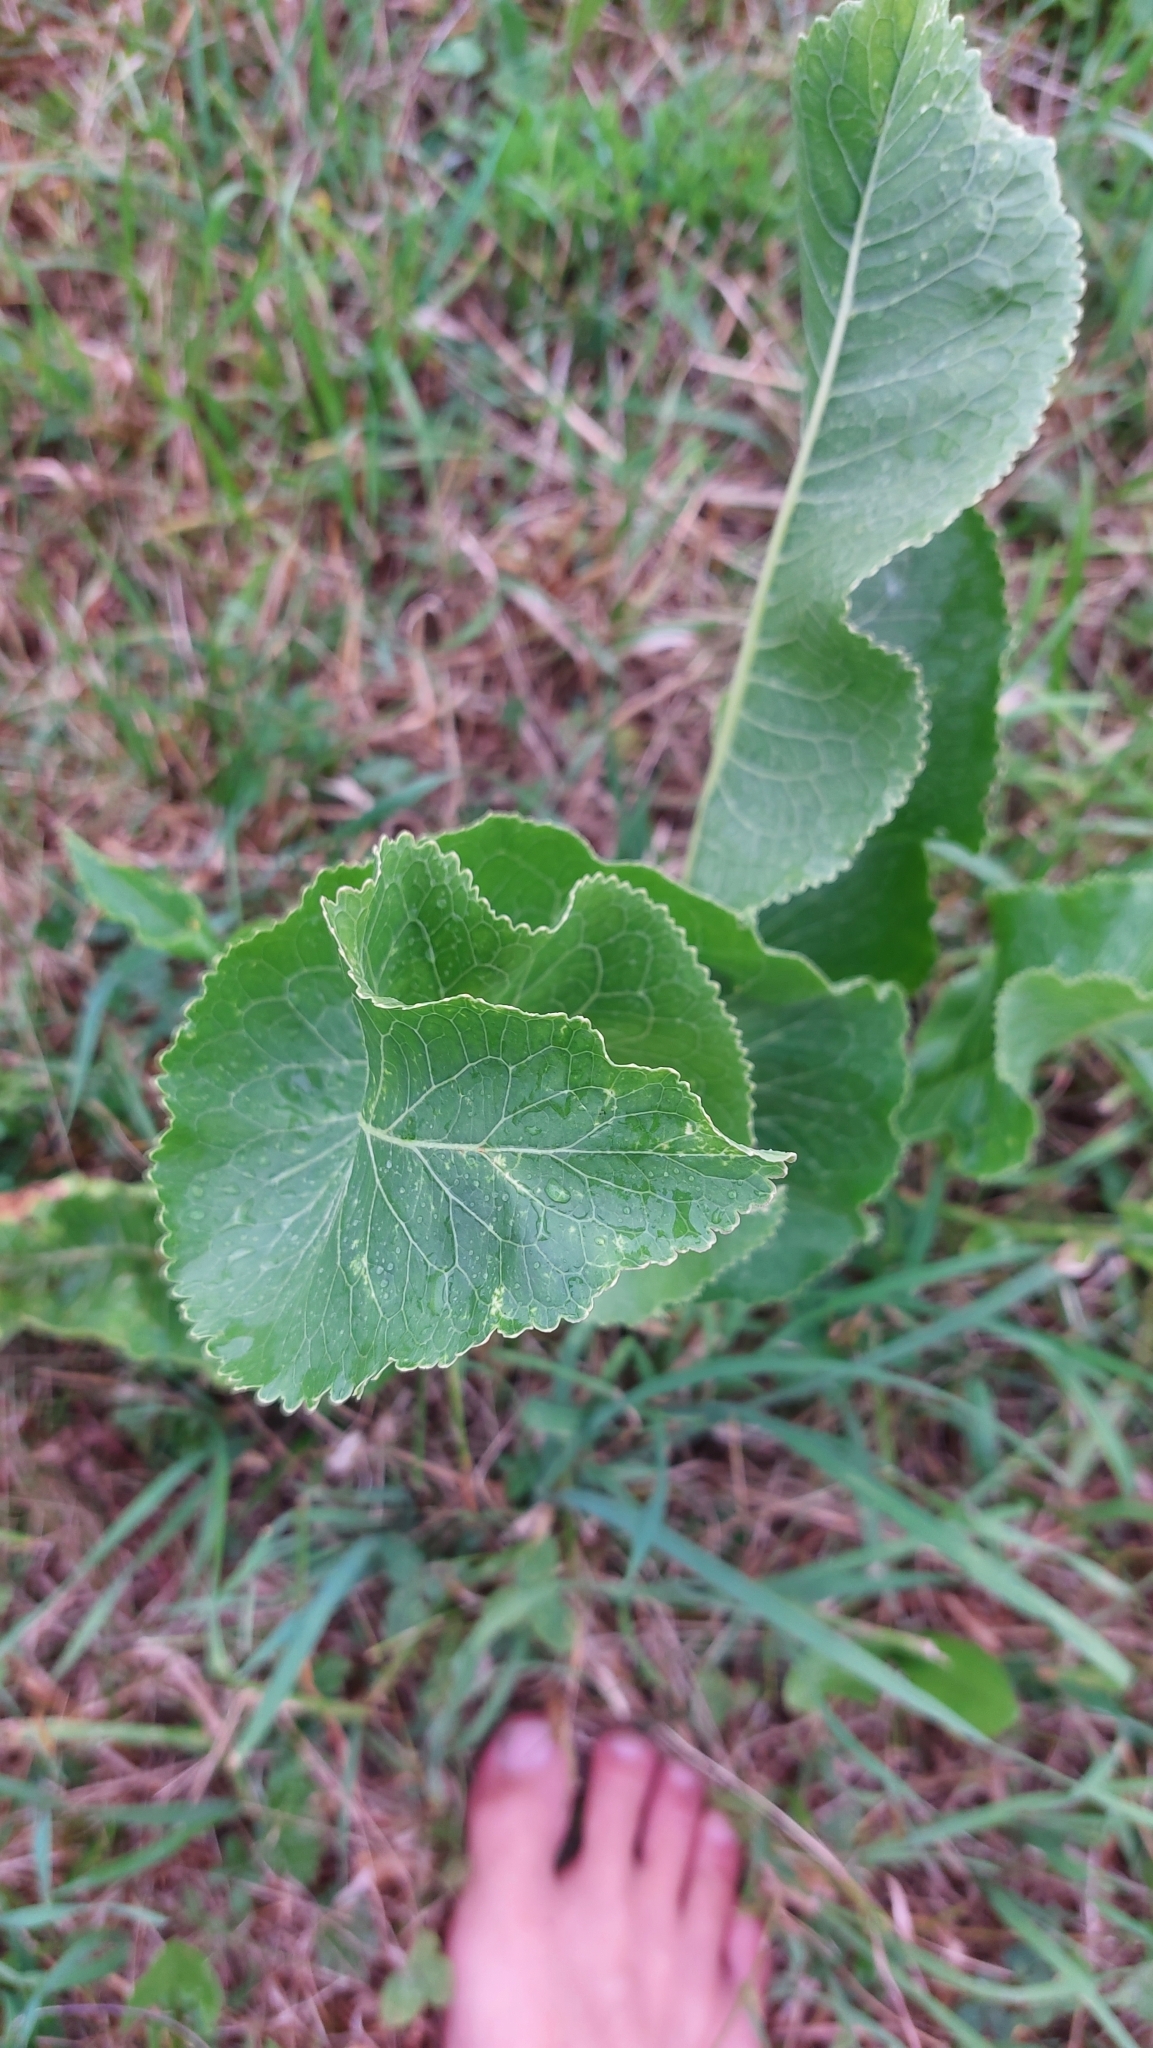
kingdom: Plantae
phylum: Tracheophyta
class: Magnoliopsida
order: Brassicales
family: Brassicaceae
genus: Armoracia
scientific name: Armoracia rusticana
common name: Horseradish
